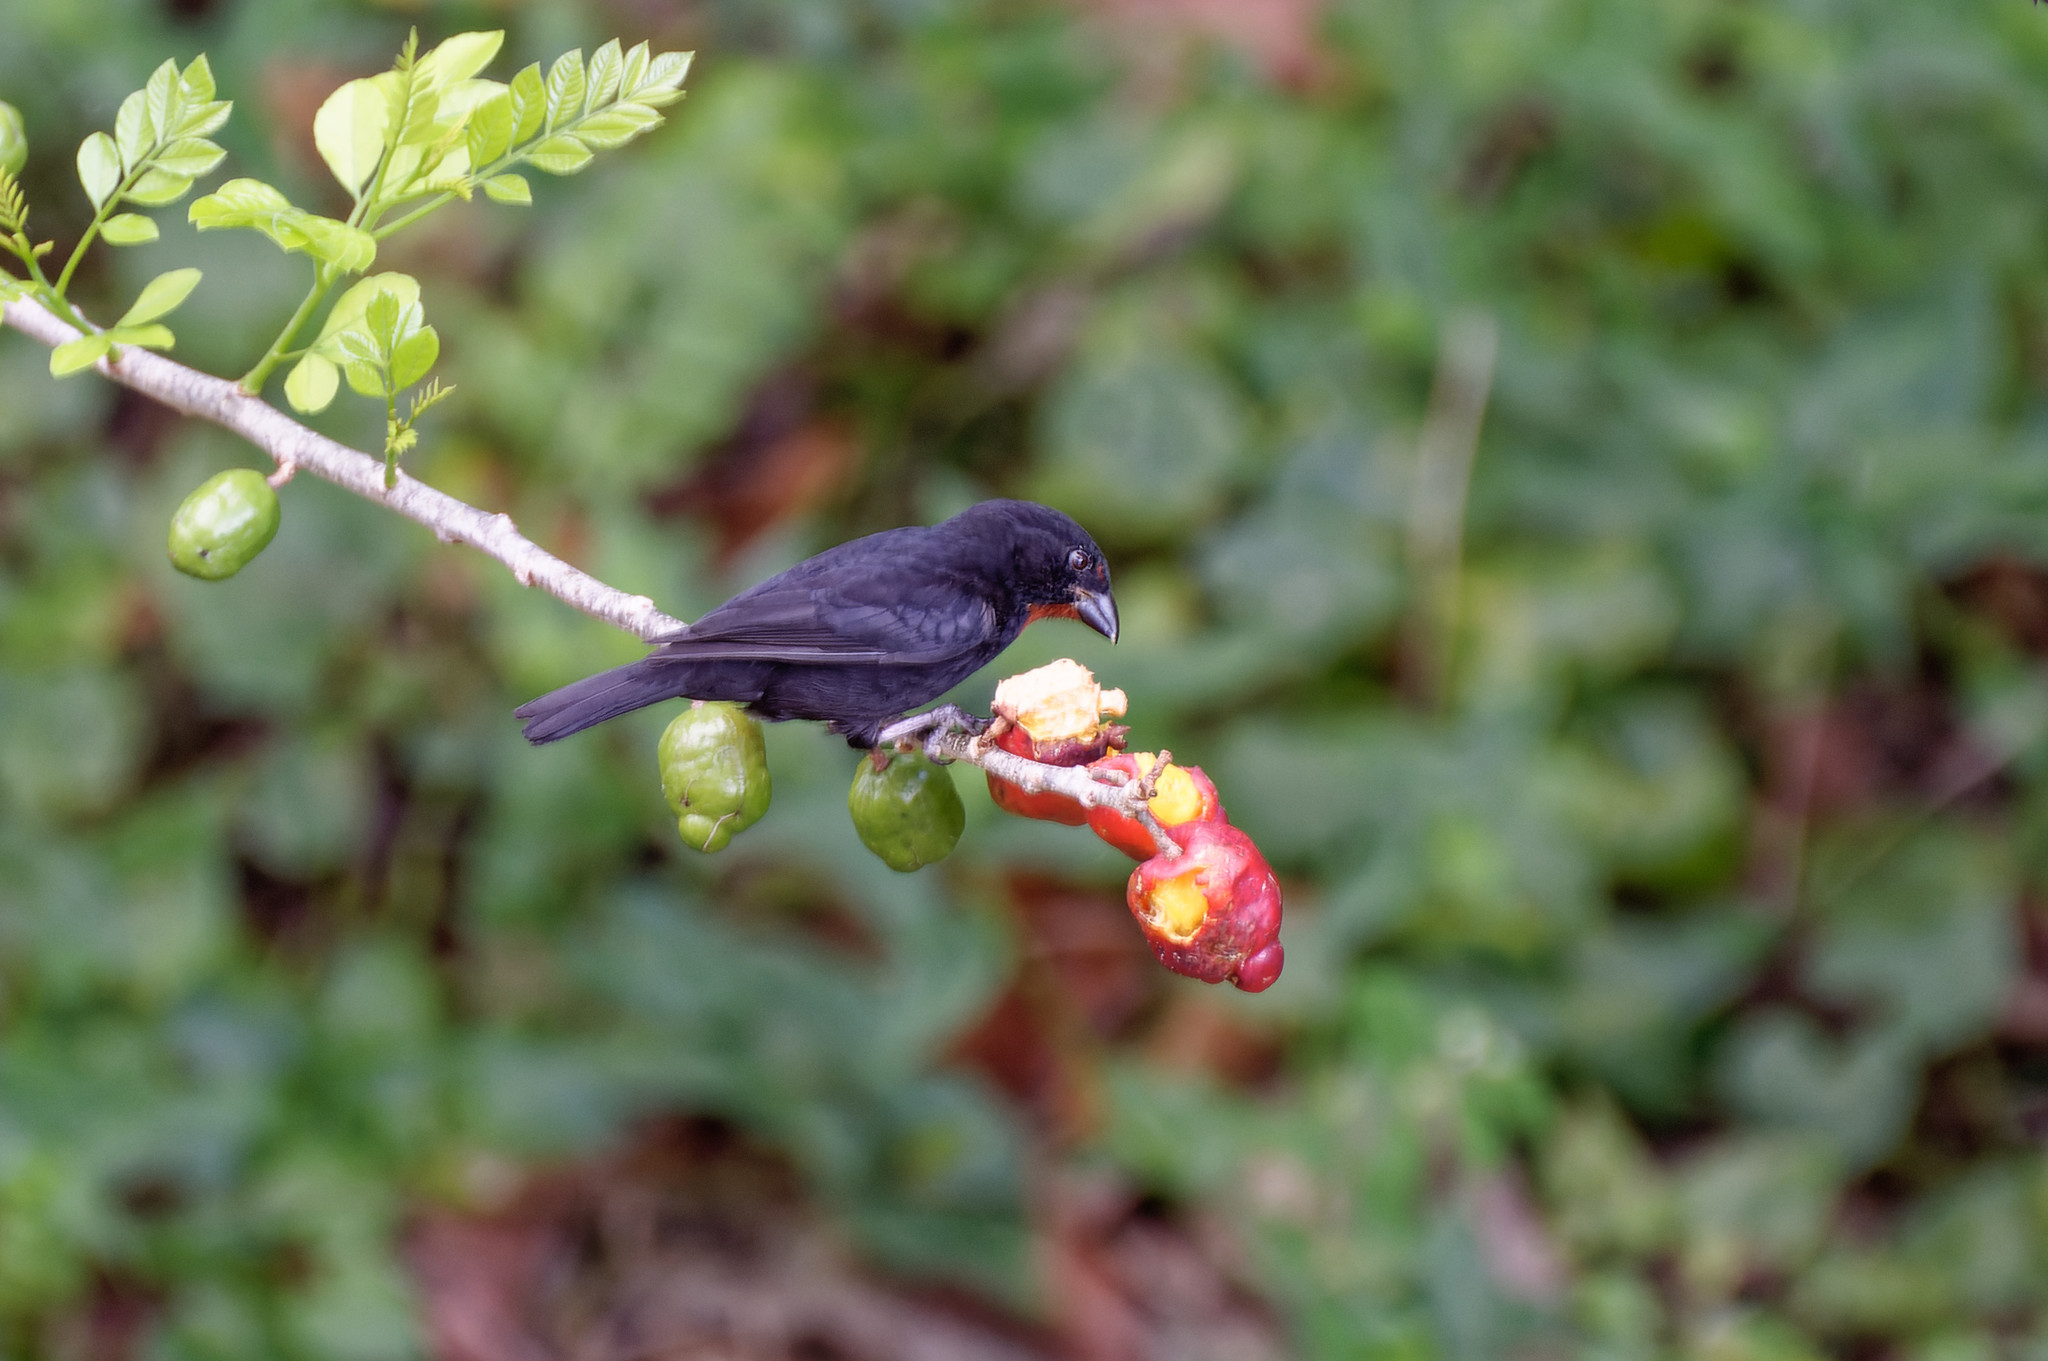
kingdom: Animalia
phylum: Chordata
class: Aves
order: Passeriformes
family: Thraupidae
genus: Loxigilla
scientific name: Loxigilla noctis
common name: Lesser antillean bullfinch
